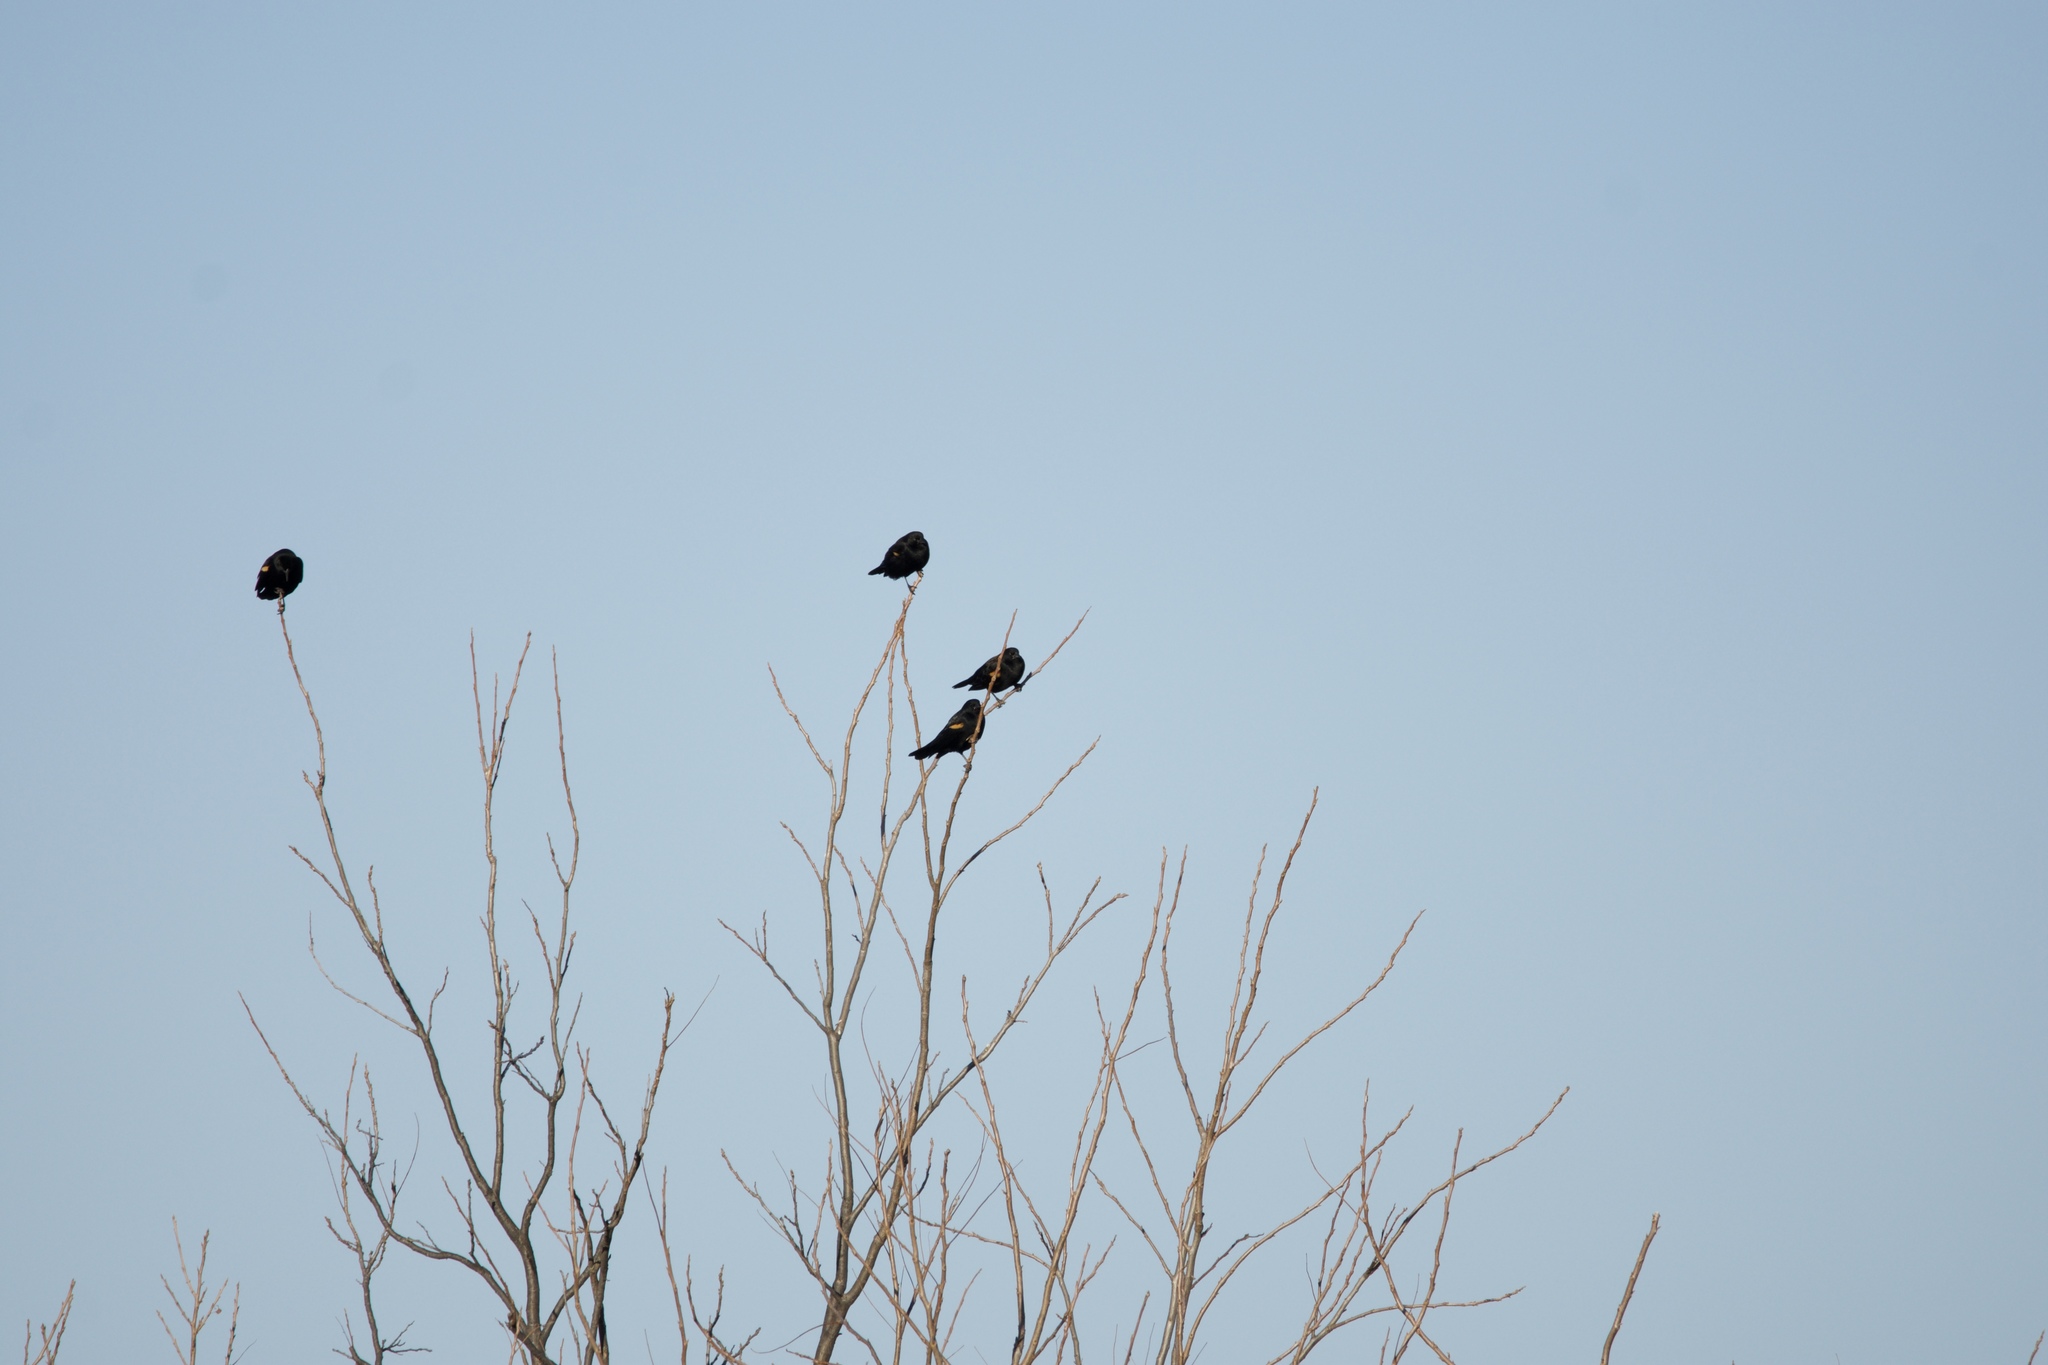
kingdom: Animalia
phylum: Chordata
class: Aves
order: Passeriformes
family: Icteridae
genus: Agelaius
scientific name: Agelaius phoeniceus
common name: Red-winged blackbird
